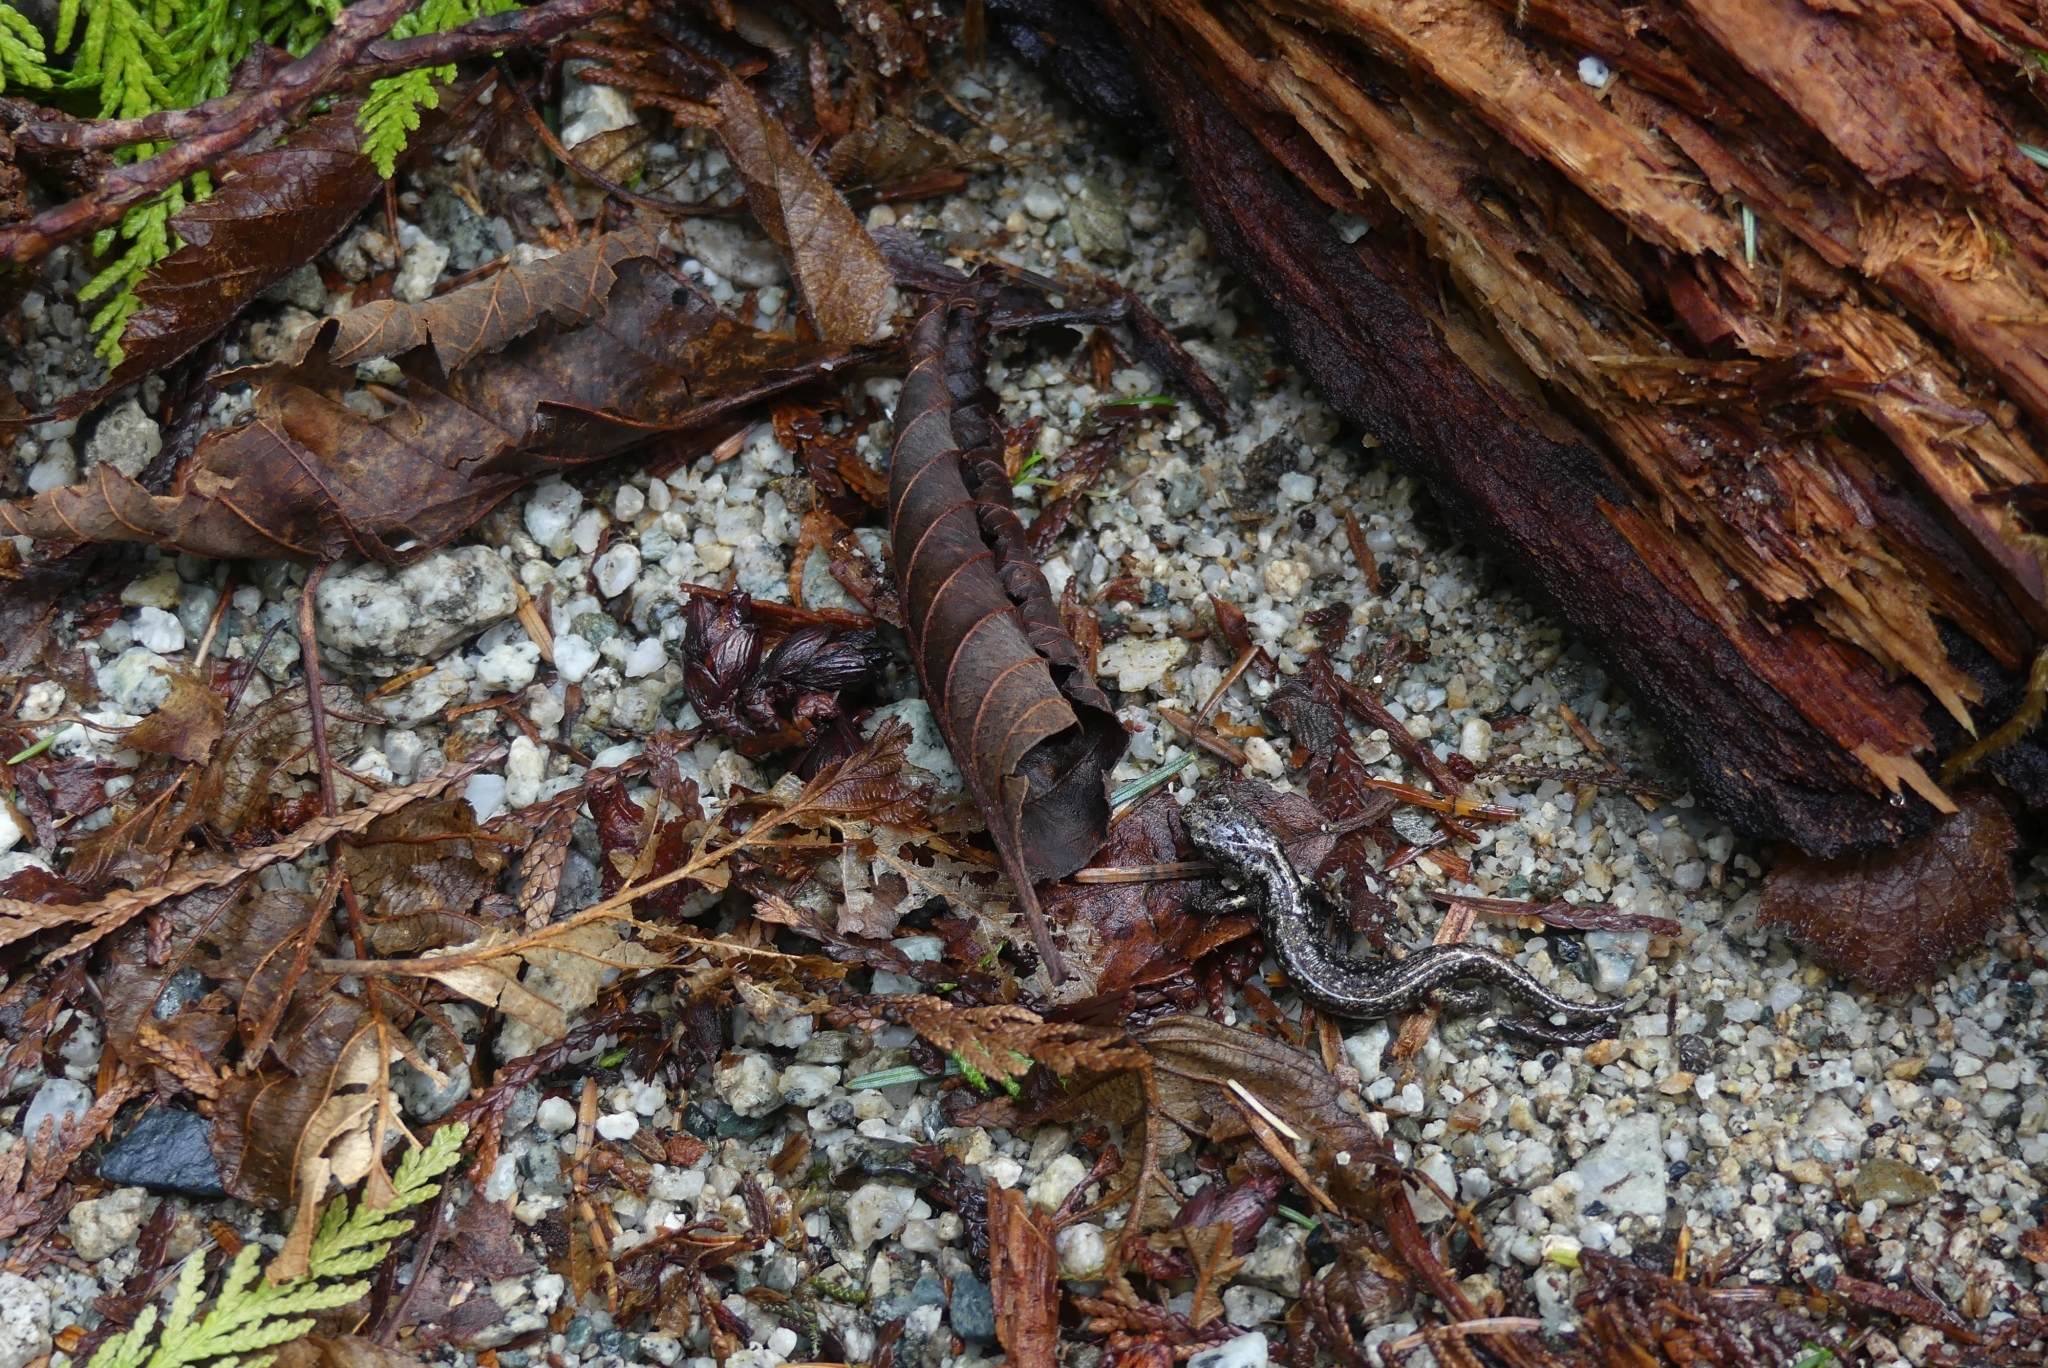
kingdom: Animalia
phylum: Chordata
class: Amphibia
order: Caudata
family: Plethodontidae
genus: Aneides
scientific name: Aneides vagrans
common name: Wandering salamander
